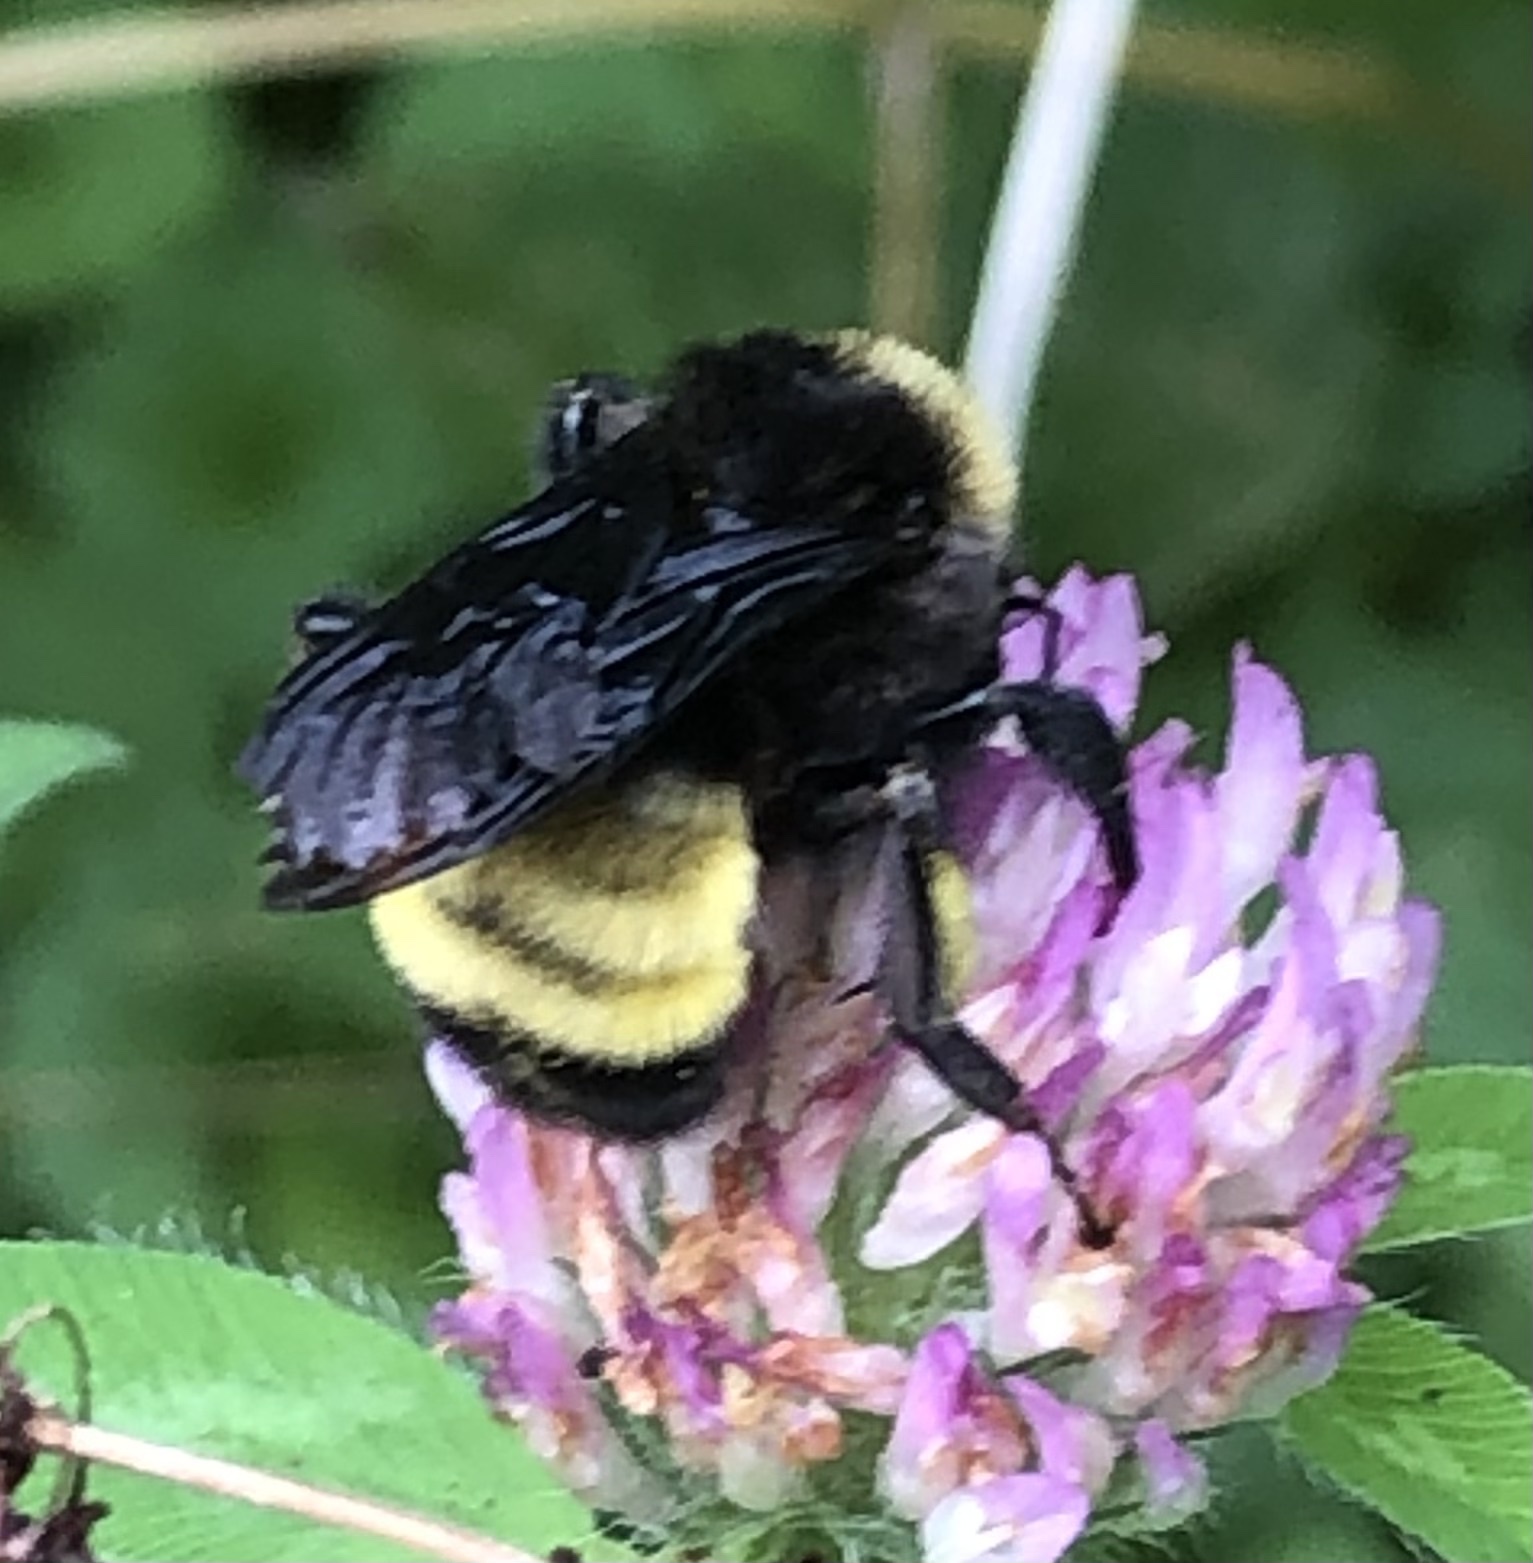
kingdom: Animalia
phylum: Arthropoda
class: Insecta
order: Hymenoptera
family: Apidae
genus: Bombus
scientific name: Bombus pensylvanicus
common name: Bumble bee
